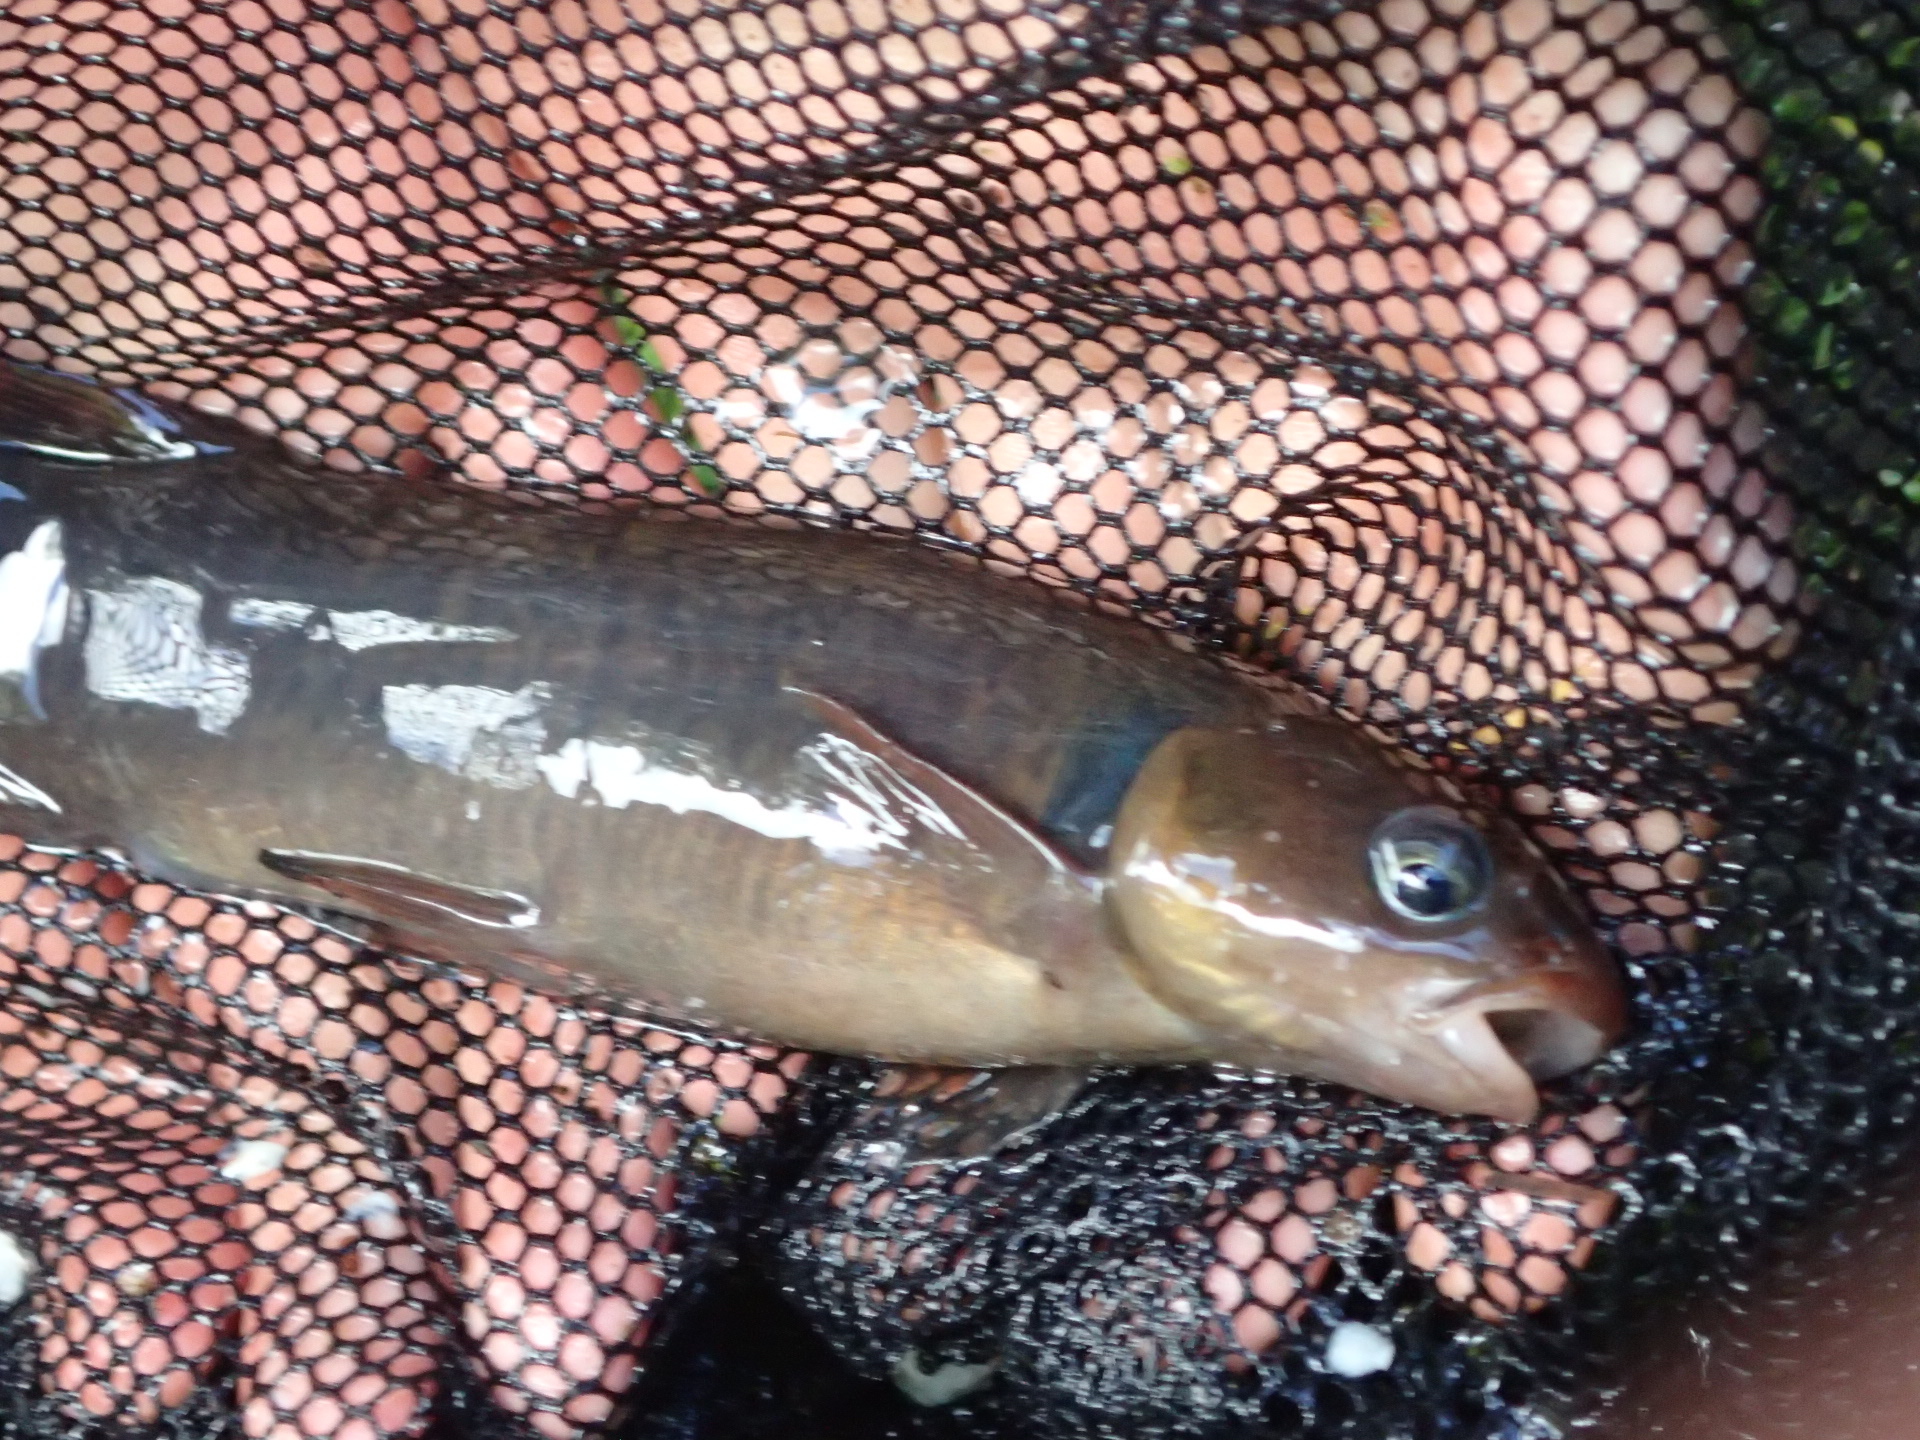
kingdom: Animalia
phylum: Chordata
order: Osmeriformes
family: Galaxiidae
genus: Galaxias
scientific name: Galaxias postvectis
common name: Shortjaw kokopu
